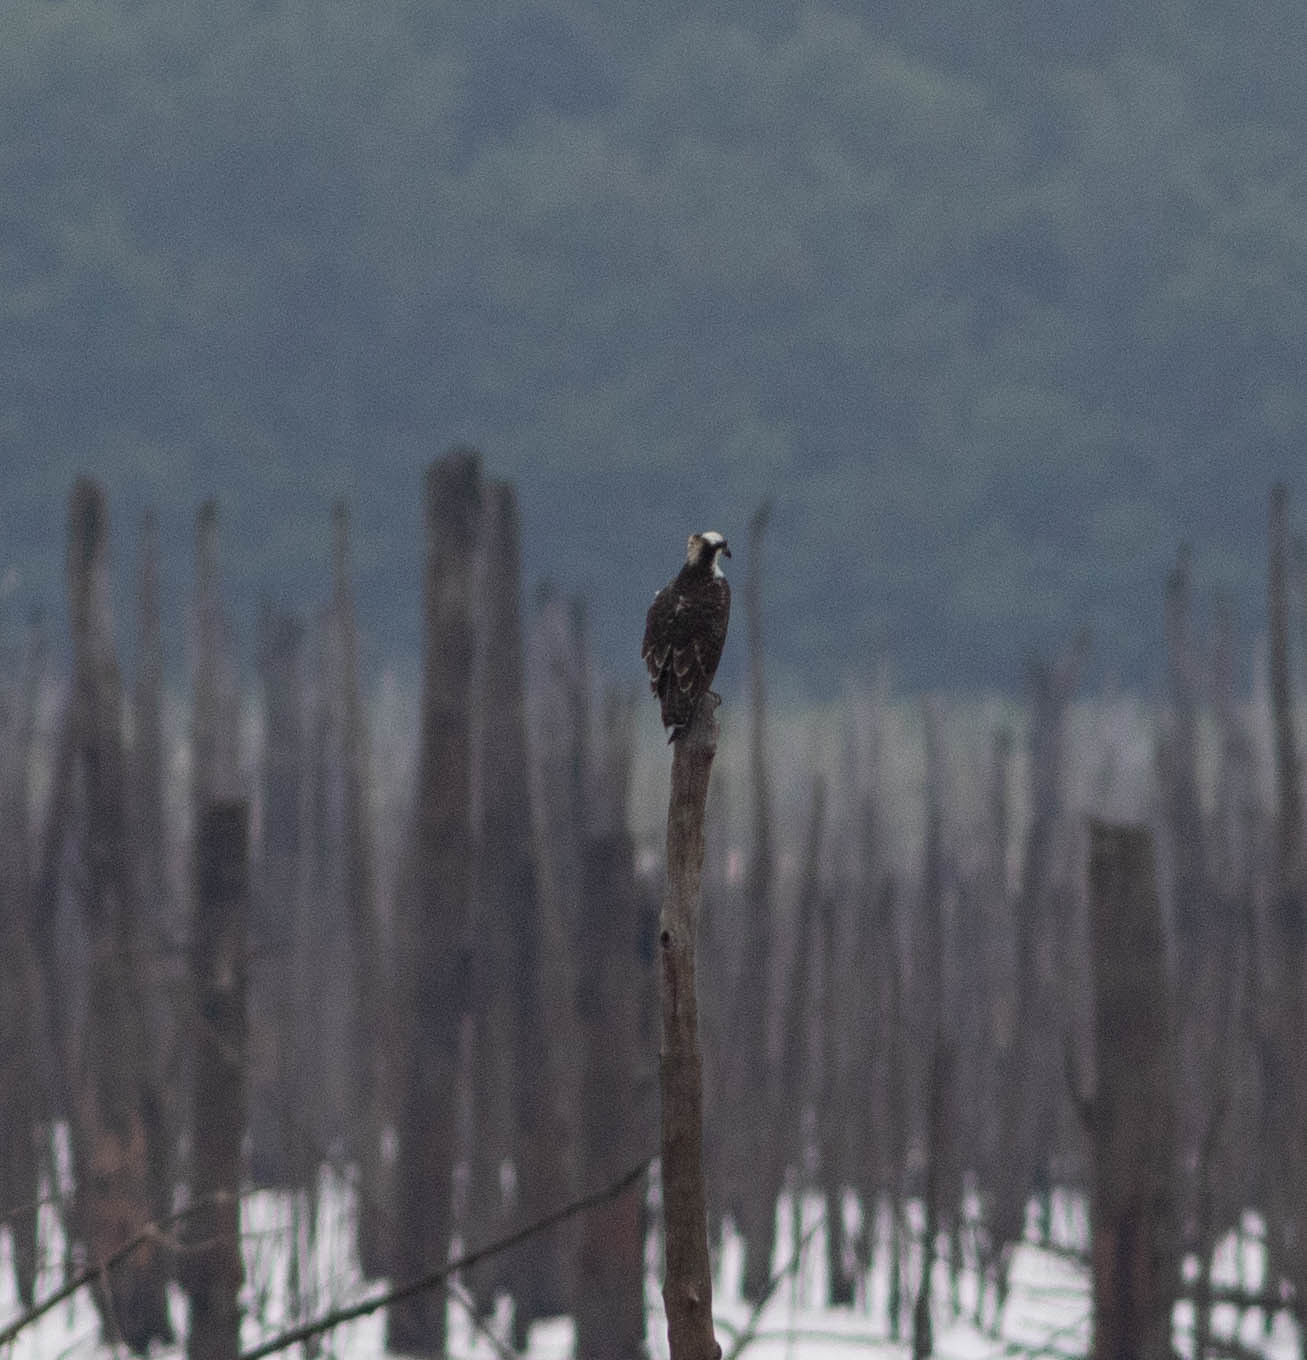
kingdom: Animalia
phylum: Chordata
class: Aves
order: Accipitriformes
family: Pandionidae
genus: Pandion
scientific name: Pandion haliaetus
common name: Osprey
